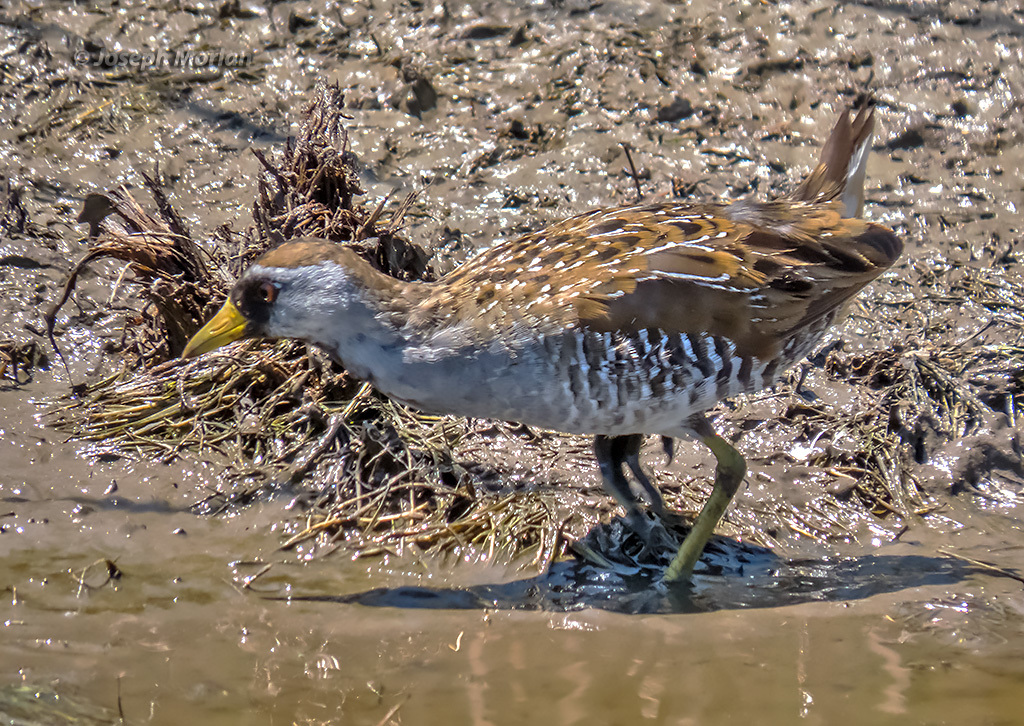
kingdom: Animalia
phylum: Chordata
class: Aves
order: Gruiformes
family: Rallidae
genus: Porzana
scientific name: Porzana carolina
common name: Sora
